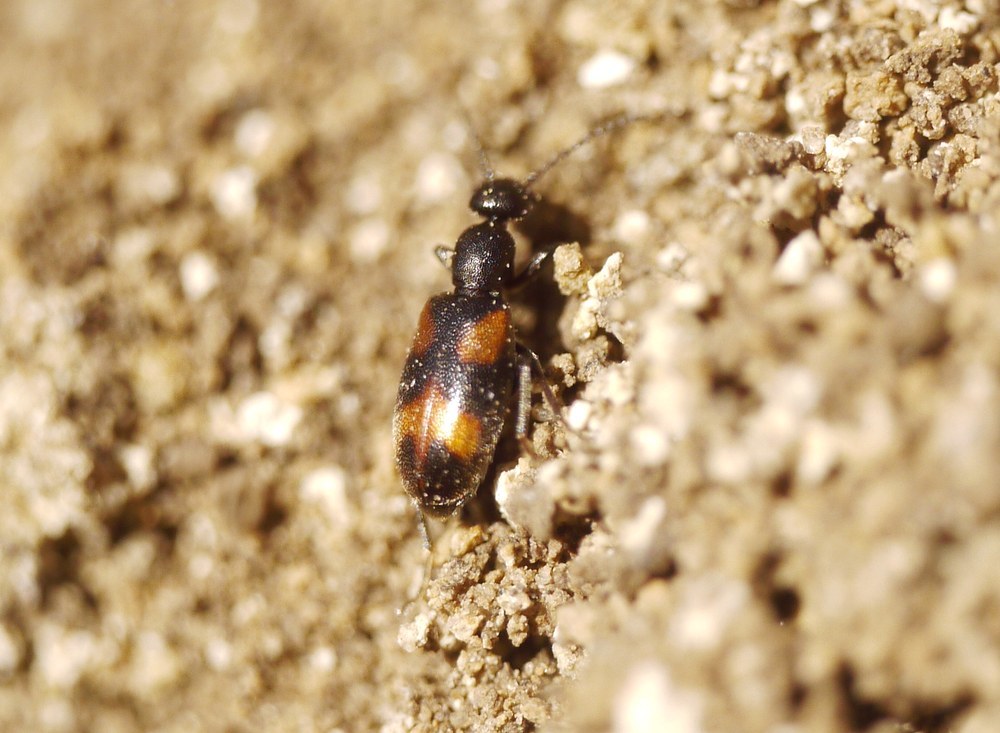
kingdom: Animalia
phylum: Arthropoda
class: Insecta
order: Coleoptera
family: Anthicidae
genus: Anthicus
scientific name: Anthicus antherinus
